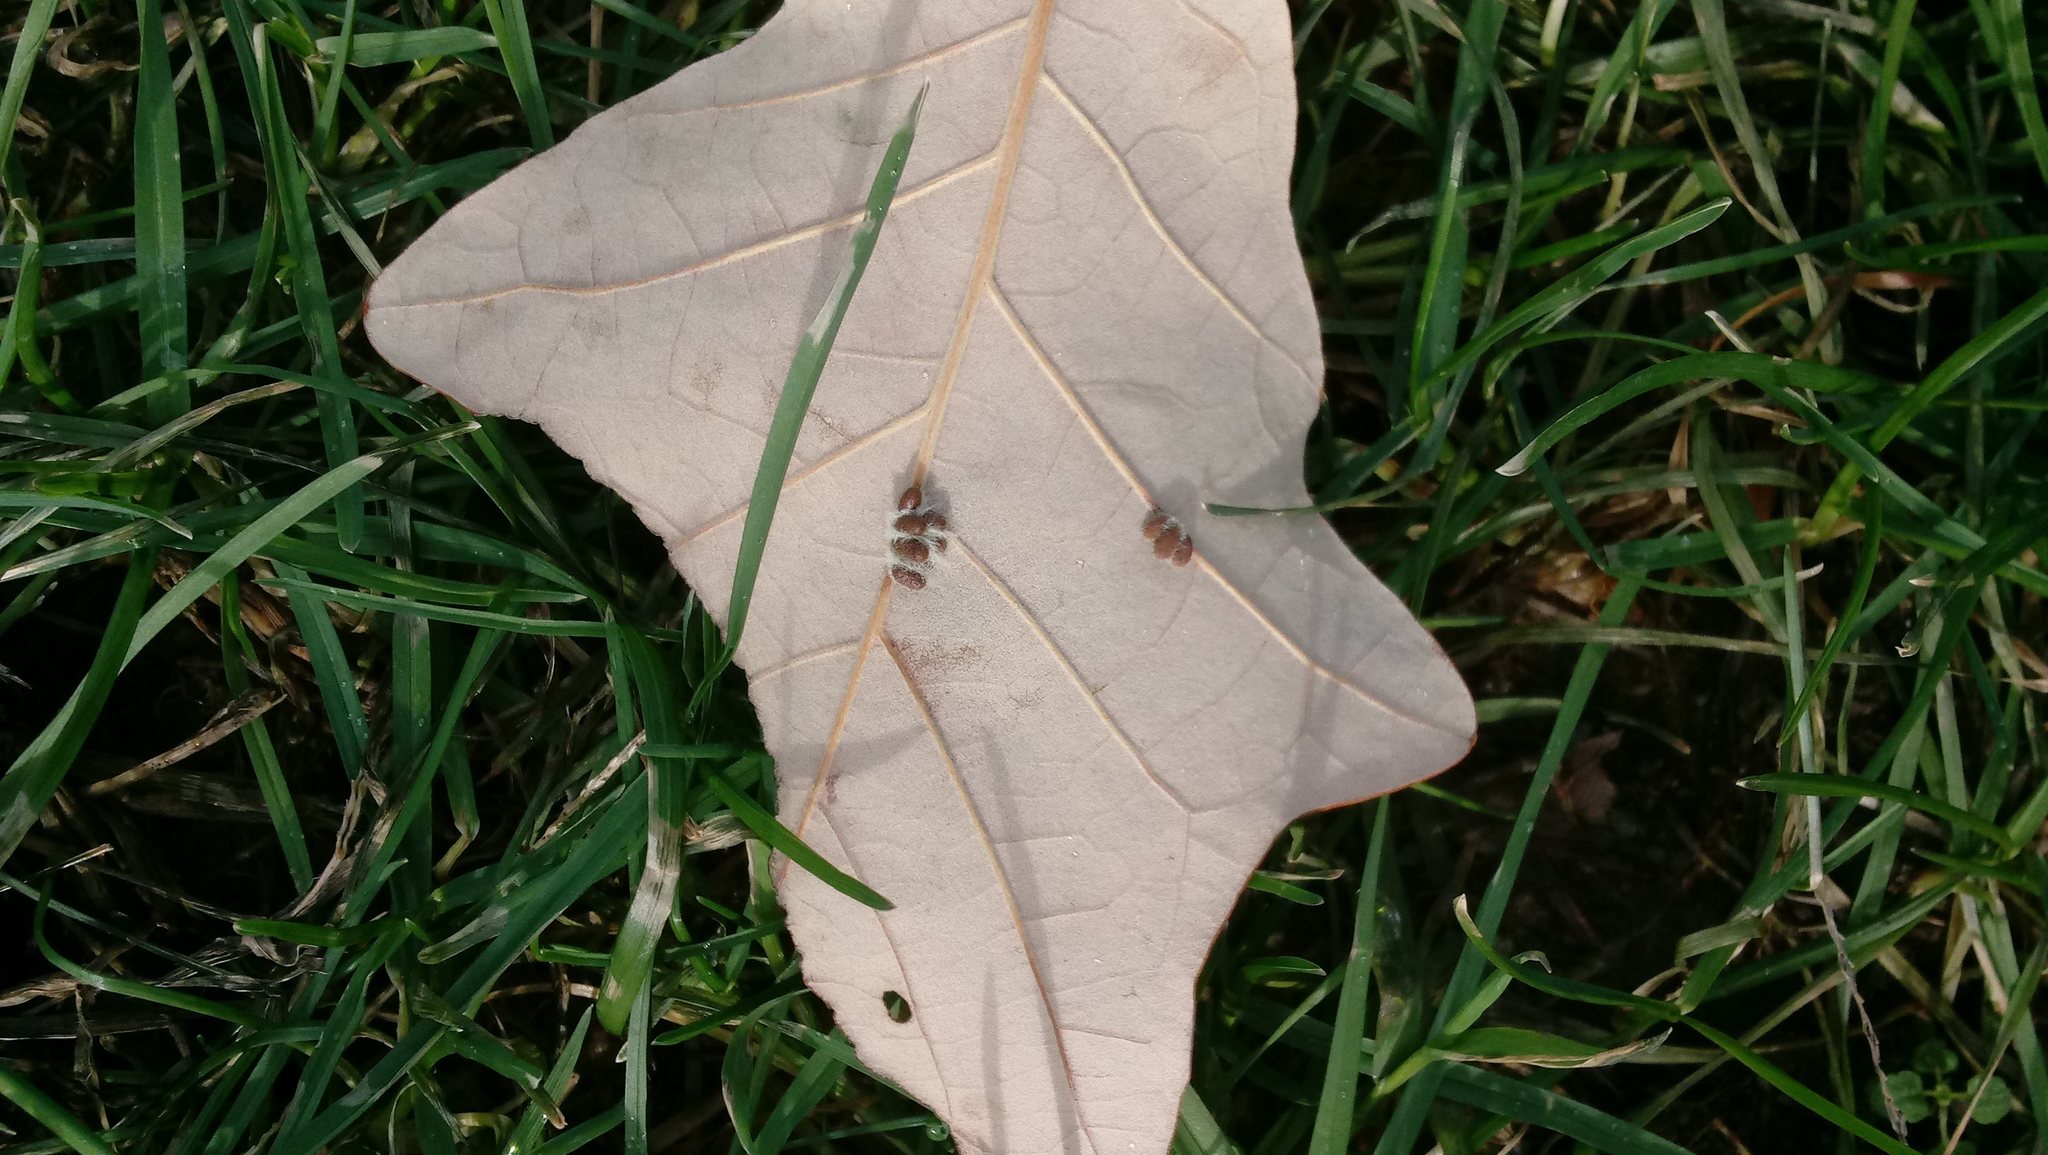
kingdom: Animalia
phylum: Arthropoda
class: Insecta
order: Hymenoptera
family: Cynipidae
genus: Andricus
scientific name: Andricus Druon ignotum
